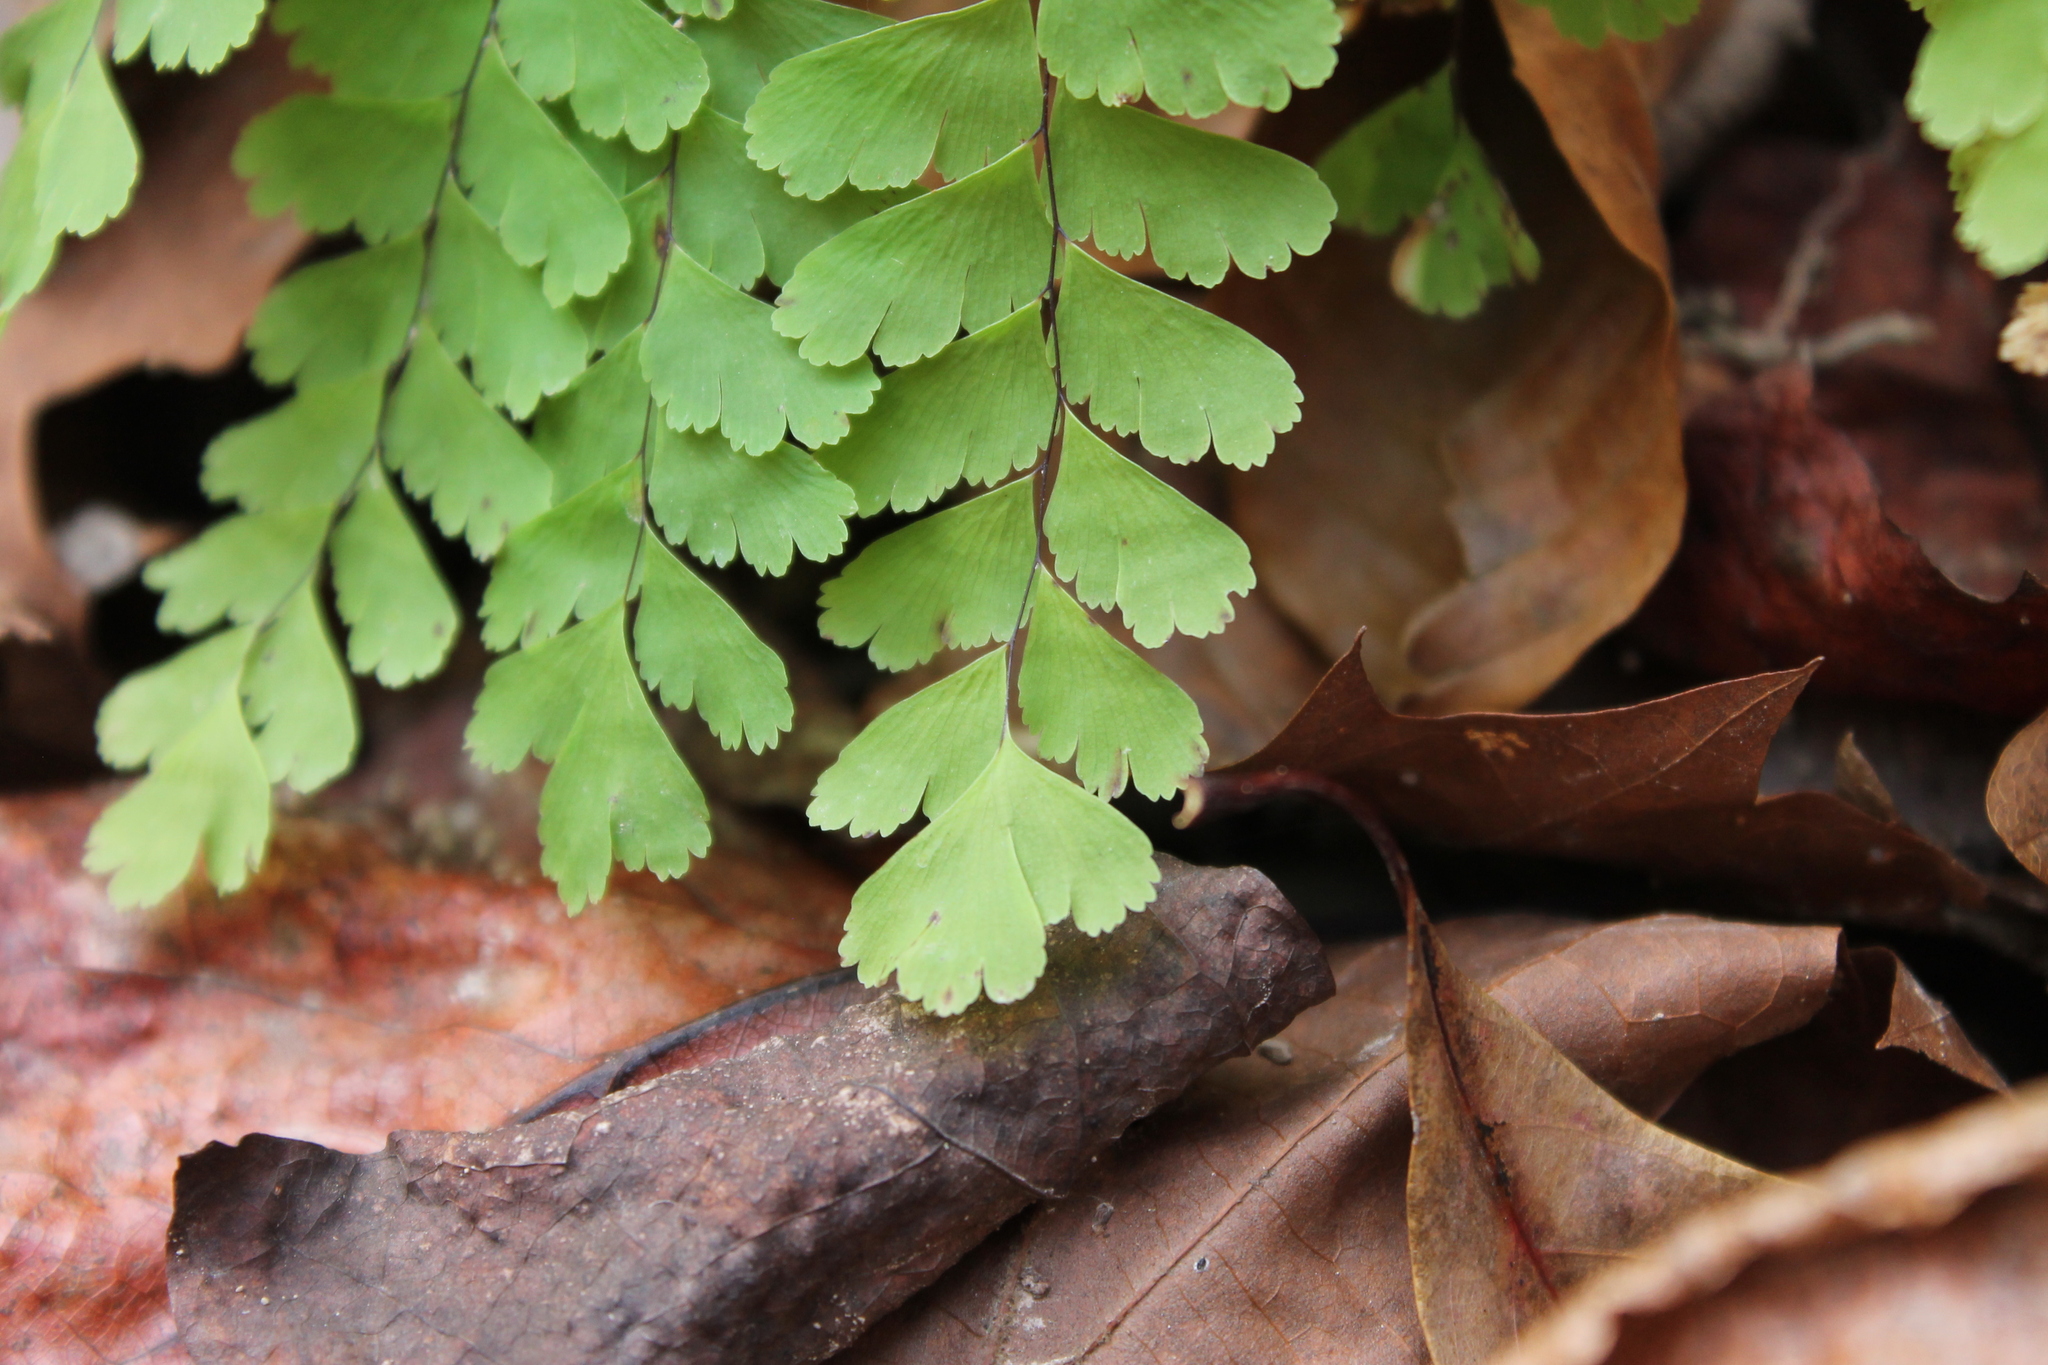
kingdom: Plantae
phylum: Tracheophyta
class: Polypodiopsida
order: Polypodiales
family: Pteridaceae
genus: Adiantum
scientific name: Adiantum pedatum
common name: Five-finger fern
